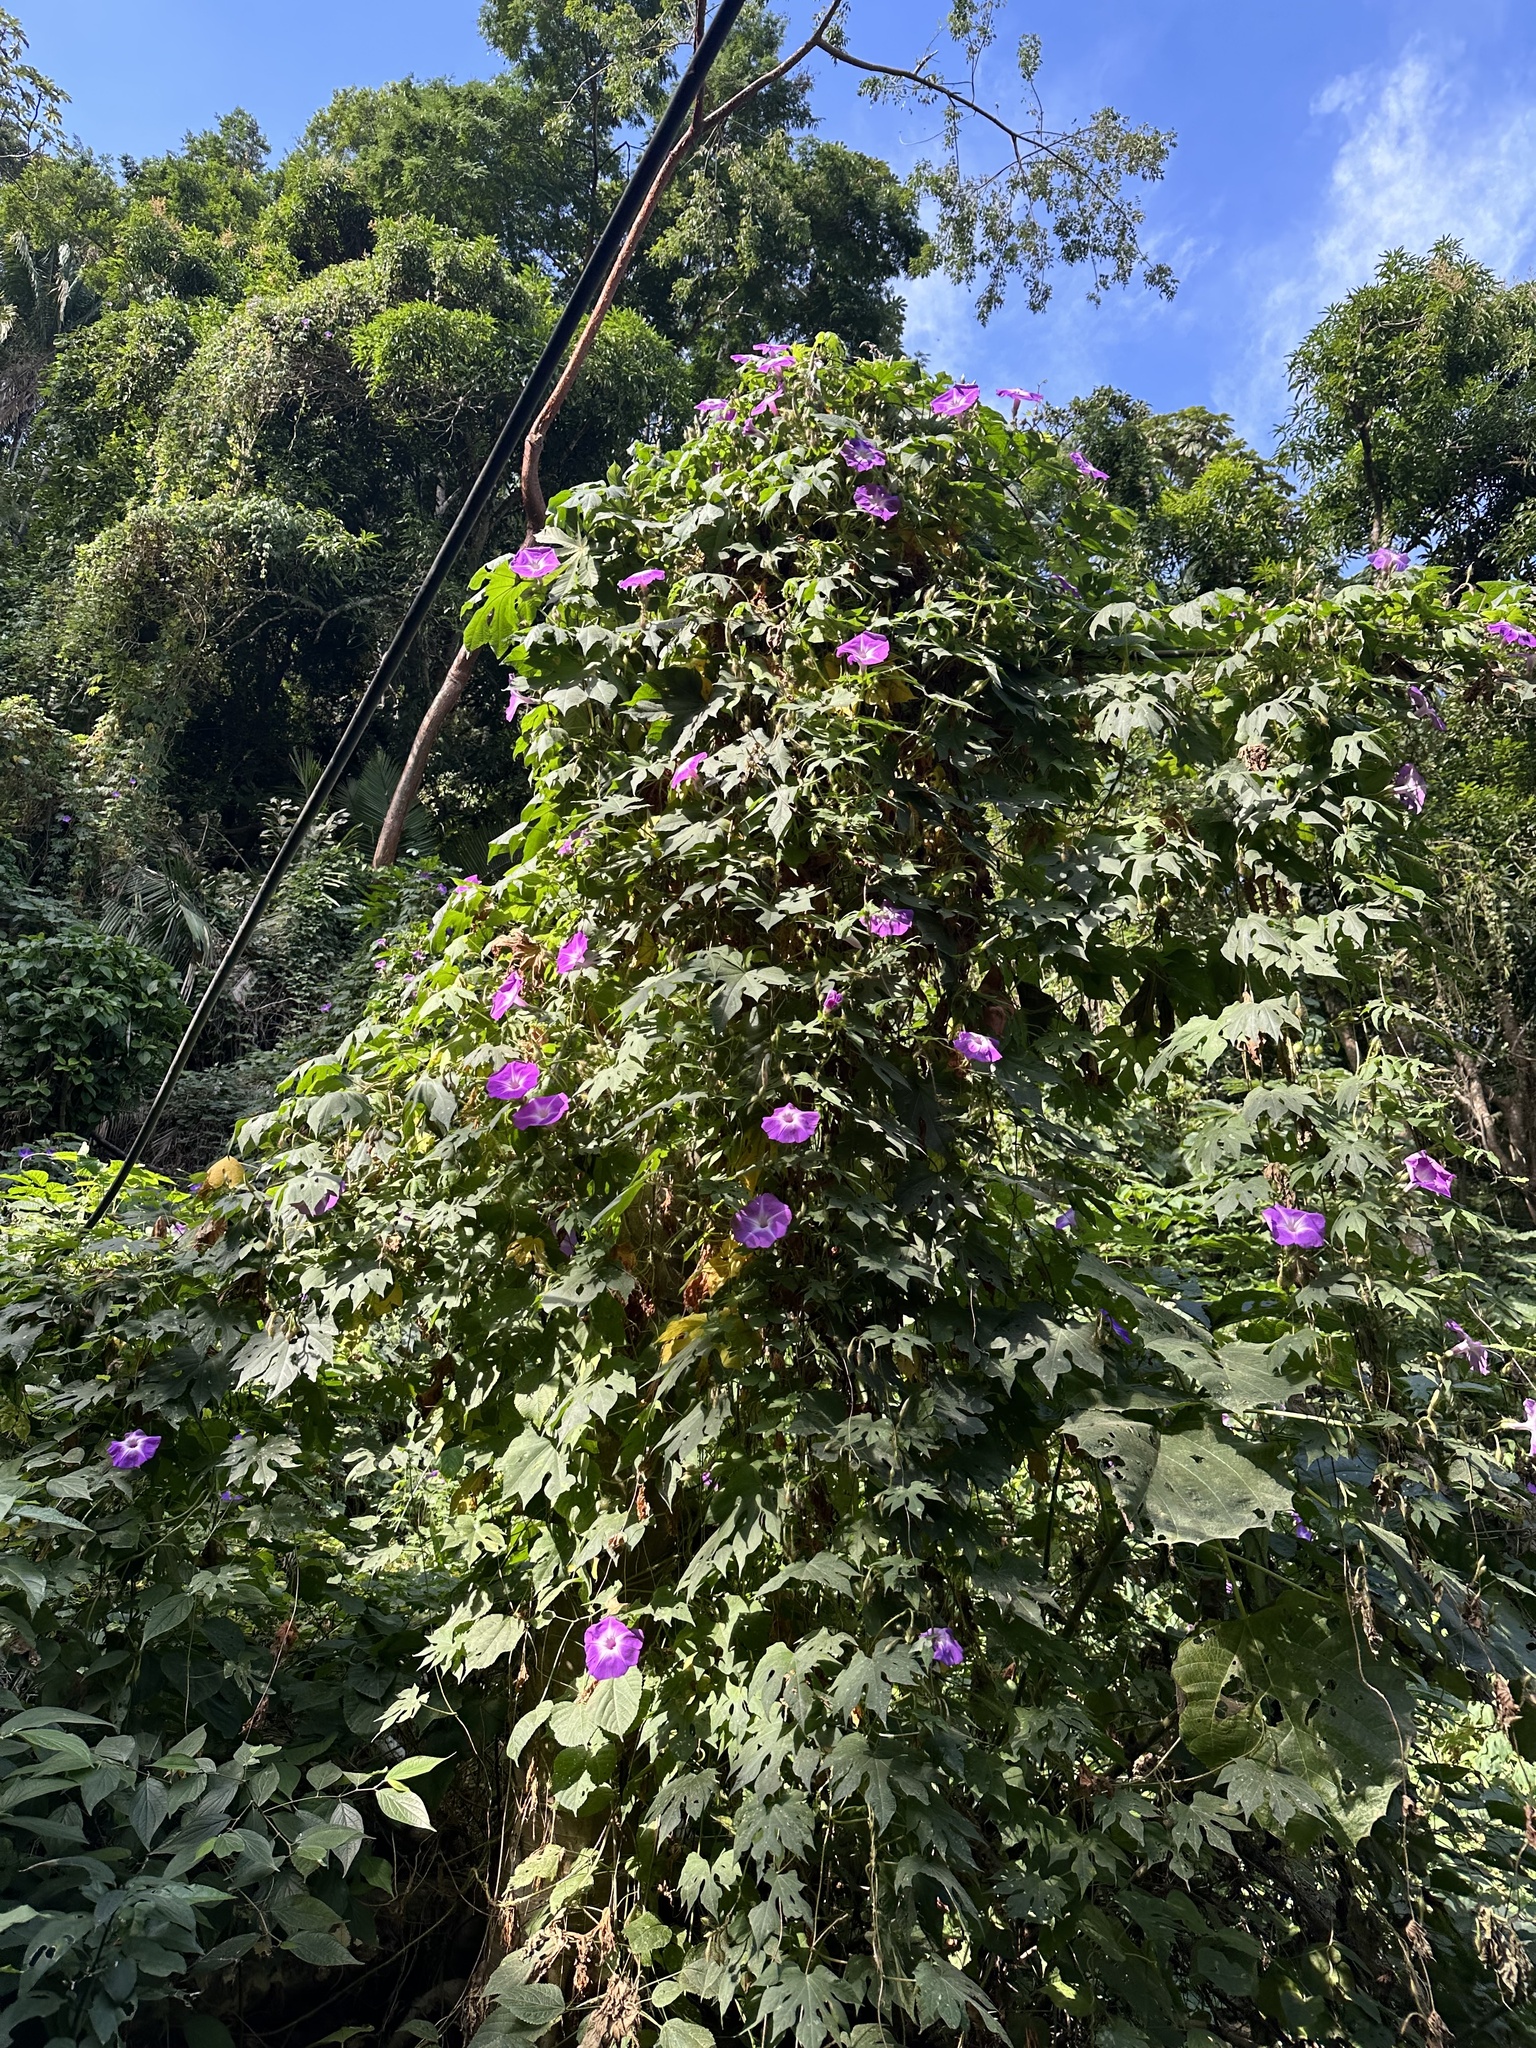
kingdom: Plantae
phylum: Tracheophyta
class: Magnoliopsida
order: Solanales
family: Convolvulaceae
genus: Ipomoea
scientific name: Ipomoea setosa
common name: Brazilian morning-glory
